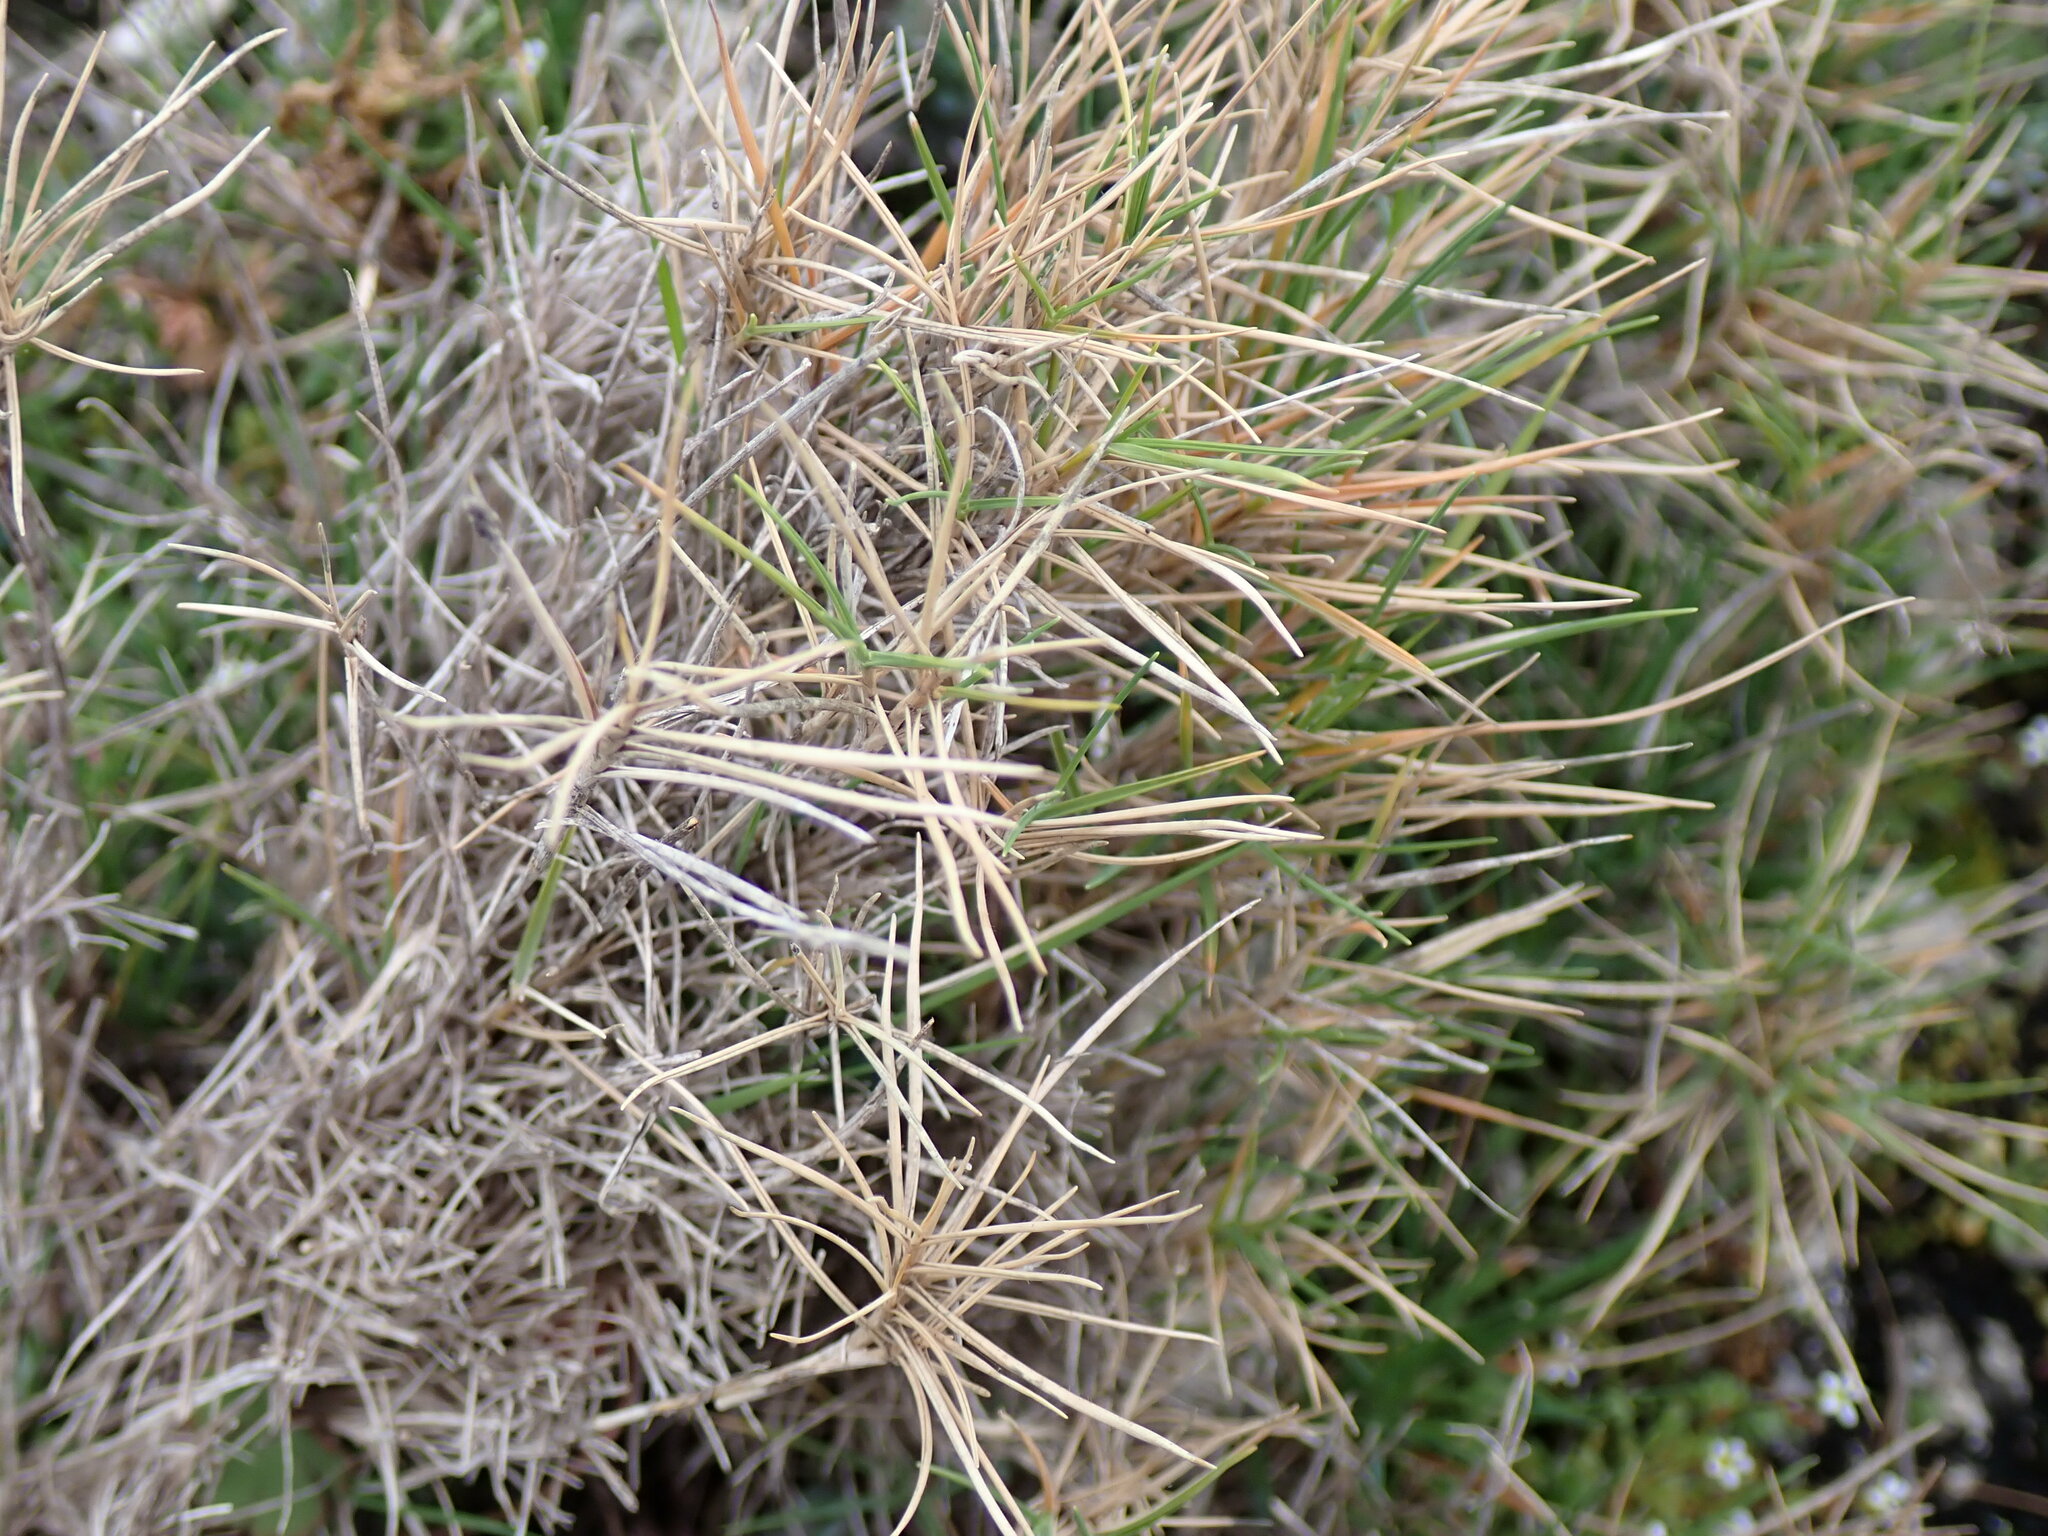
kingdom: Plantae
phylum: Tracheophyta
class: Liliopsida
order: Poales
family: Poaceae
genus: Brachypodium
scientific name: Brachypodium retusum
